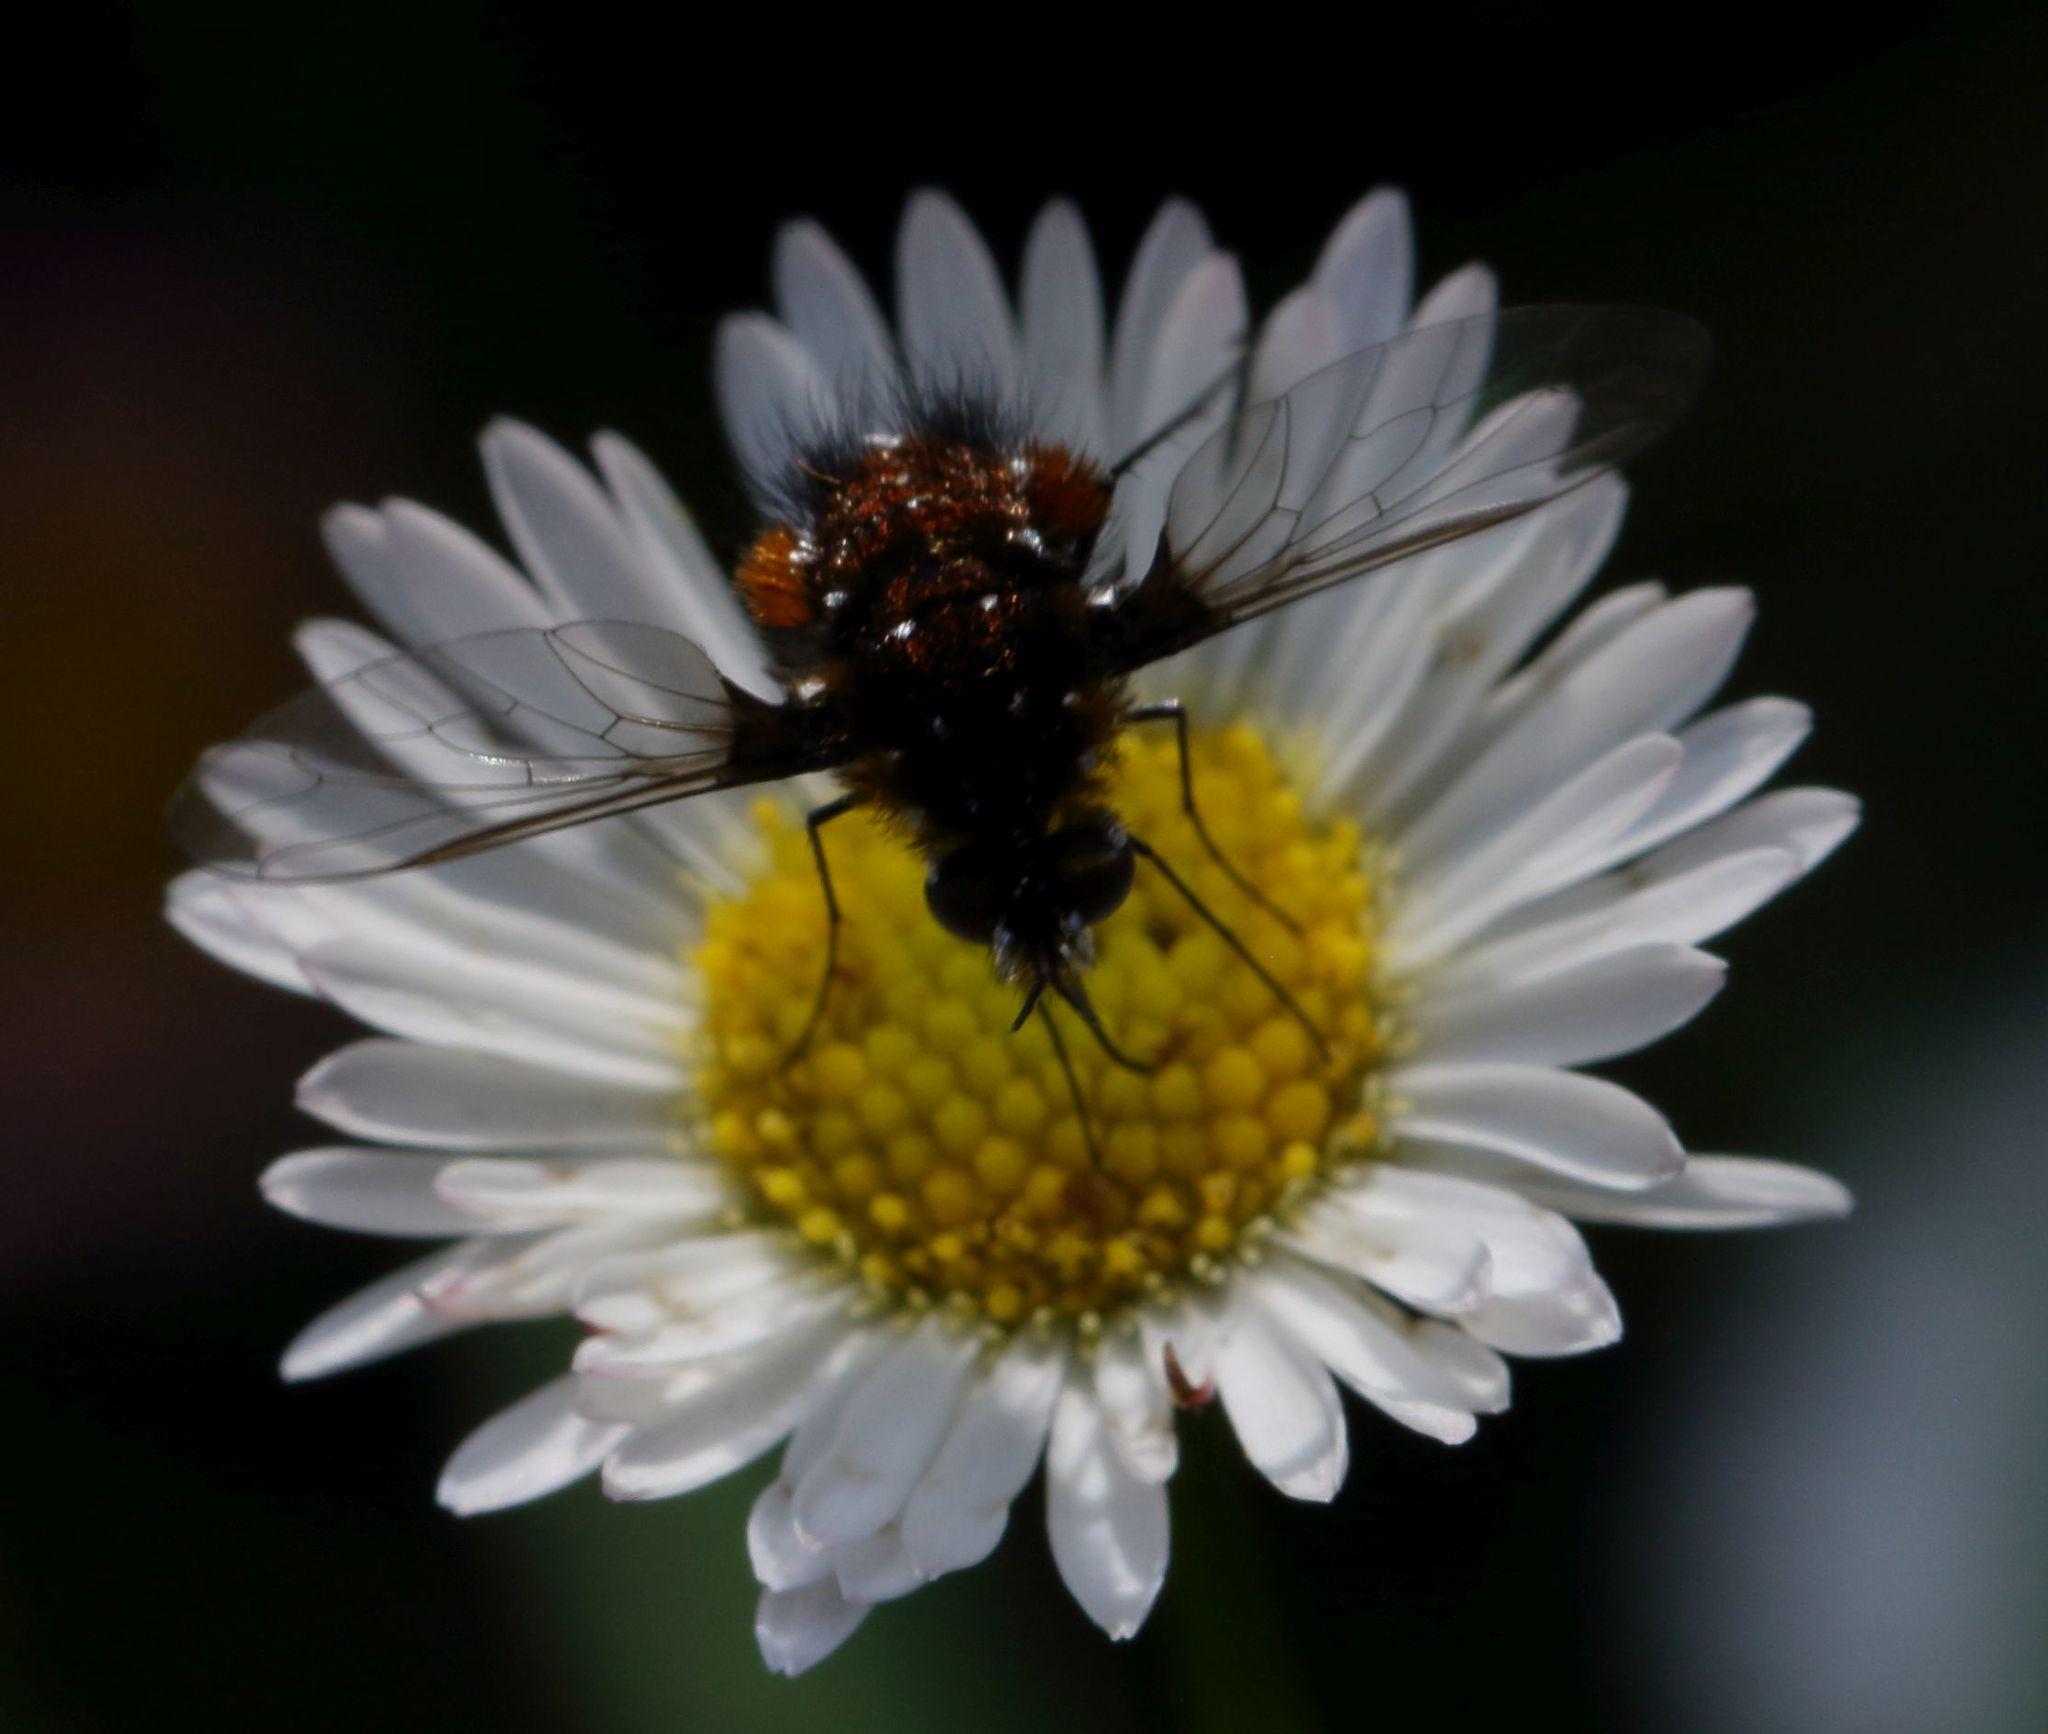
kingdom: Animalia
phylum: Arthropoda
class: Insecta
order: Diptera
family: Bombyliidae
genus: Bombylella
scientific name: Bombylella elegans
